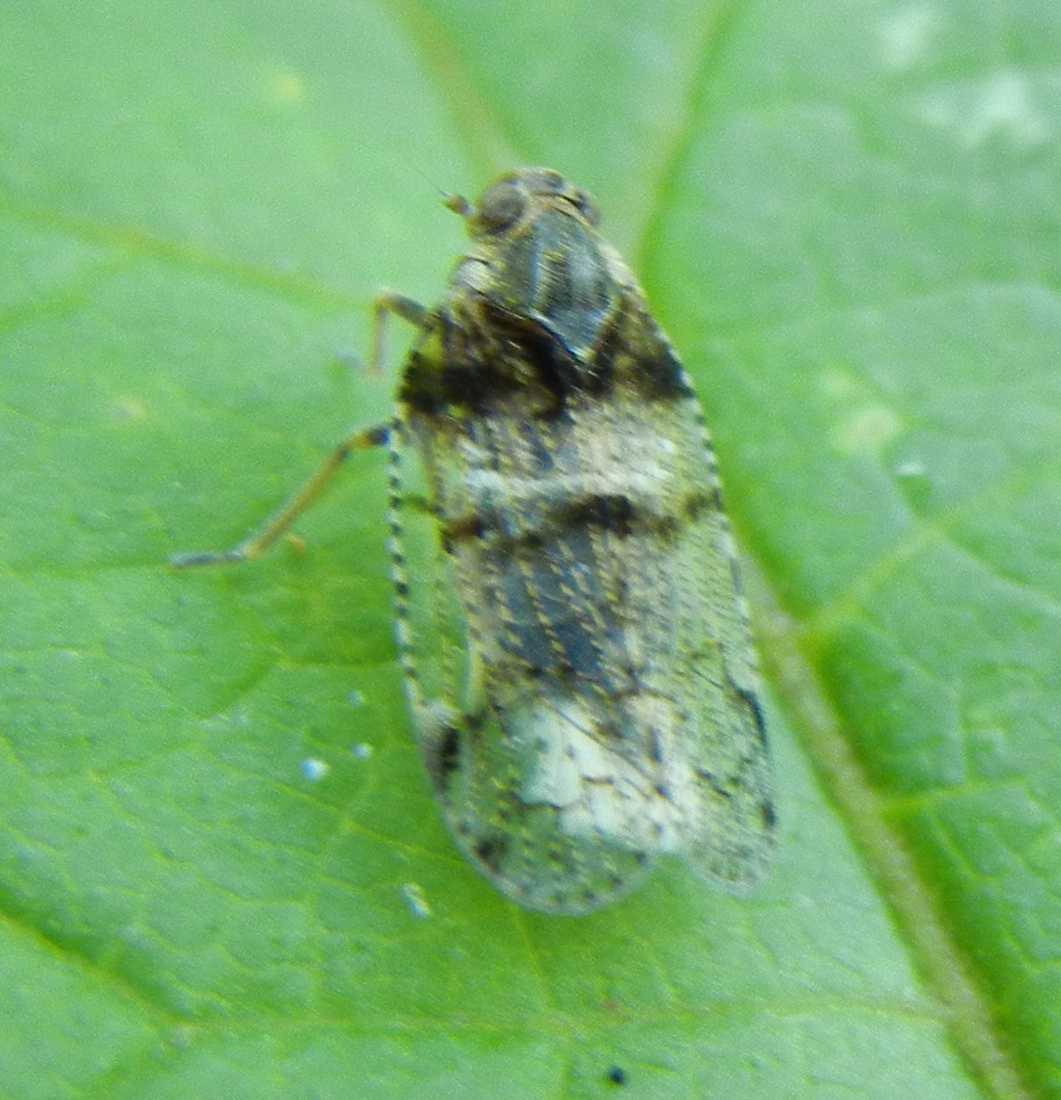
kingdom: Animalia
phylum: Arthropoda
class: Insecta
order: Hemiptera
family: Cixiidae
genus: Cixius
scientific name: Cixius nervosus
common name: Common lacehopper
